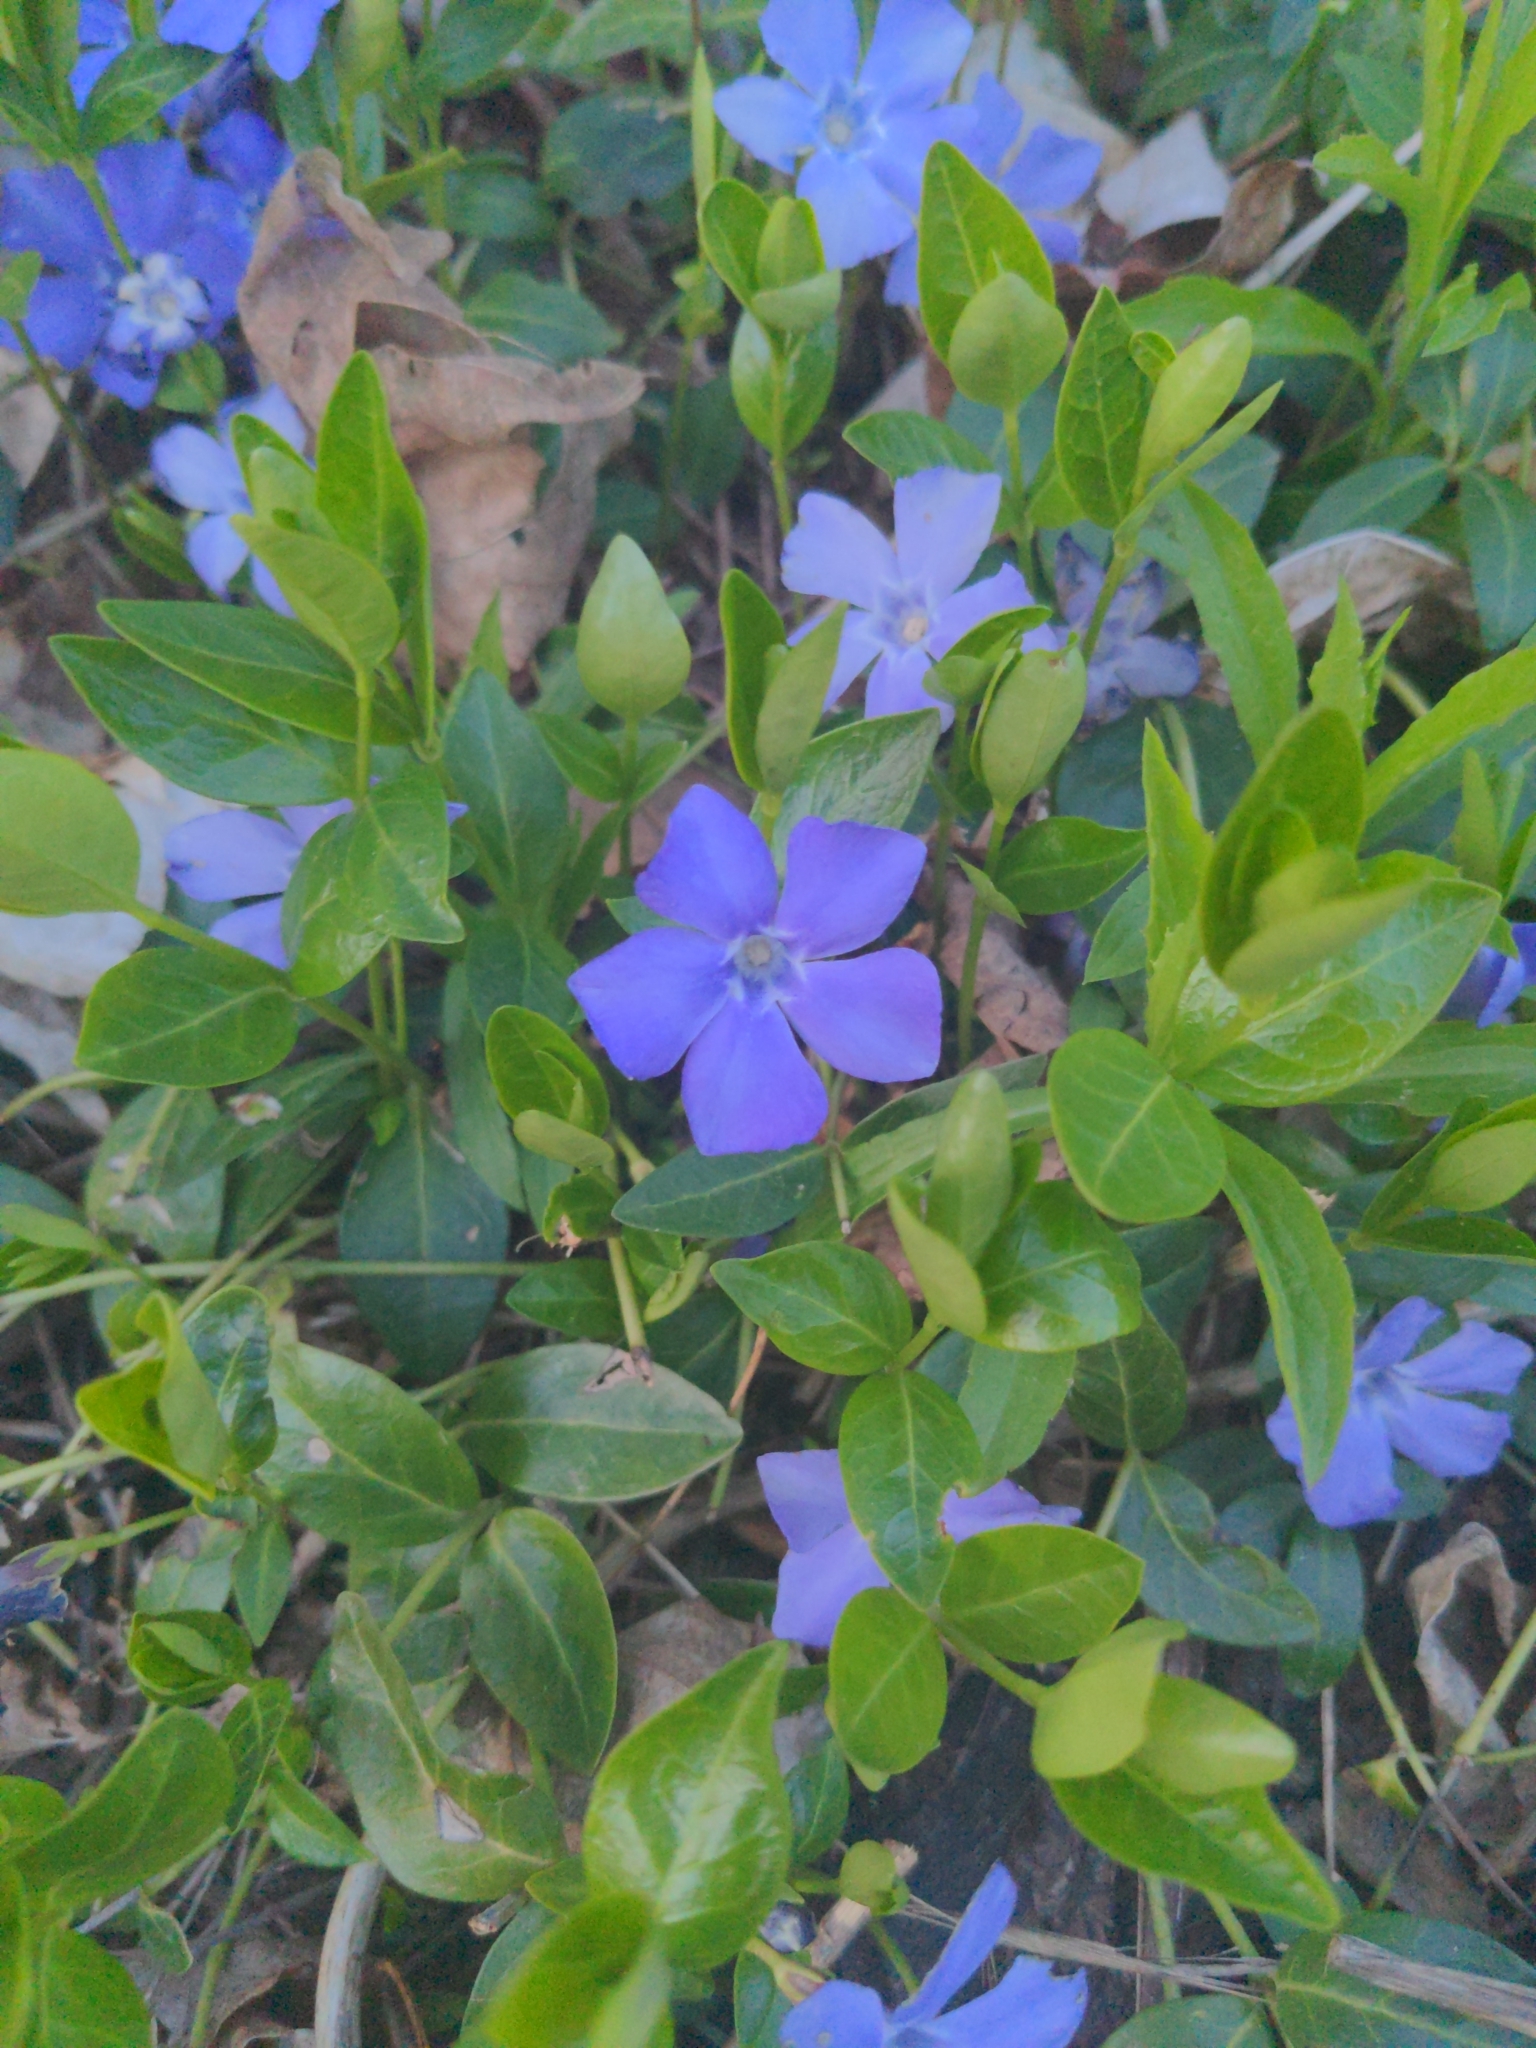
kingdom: Plantae
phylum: Tracheophyta
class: Magnoliopsida
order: Gentianales
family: Apocynaceae
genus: Vinca
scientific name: Vinca minor
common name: Lesser periwinkle
